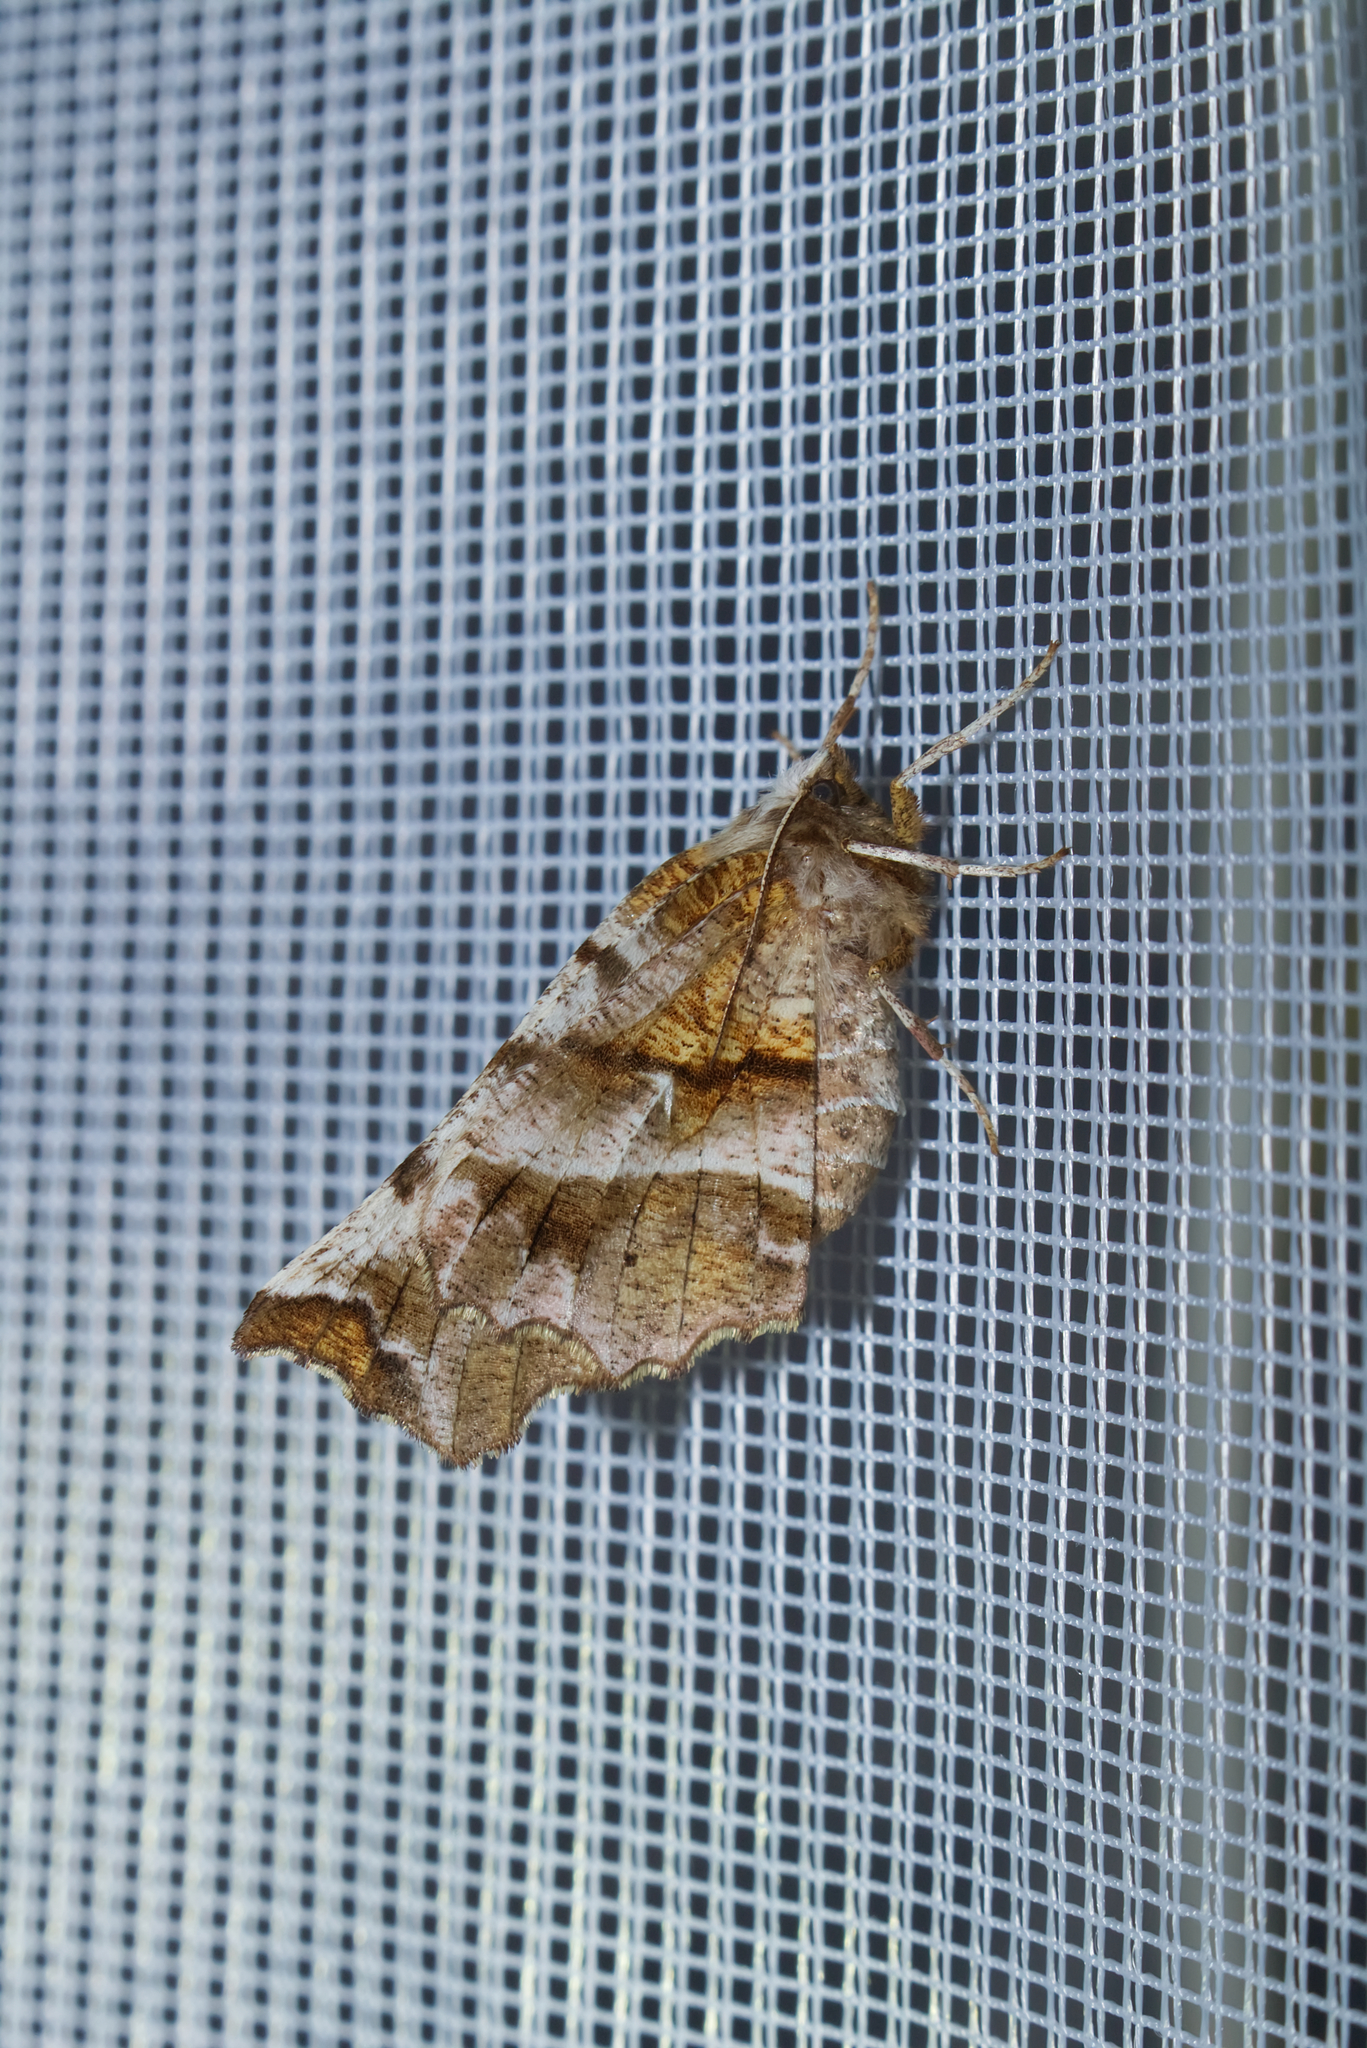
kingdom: Animalia
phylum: Arthropoda
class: Insecta
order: Lepidoptera
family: Geometridae
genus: Selenia
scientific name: Selenia dentaria
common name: Early thorn
